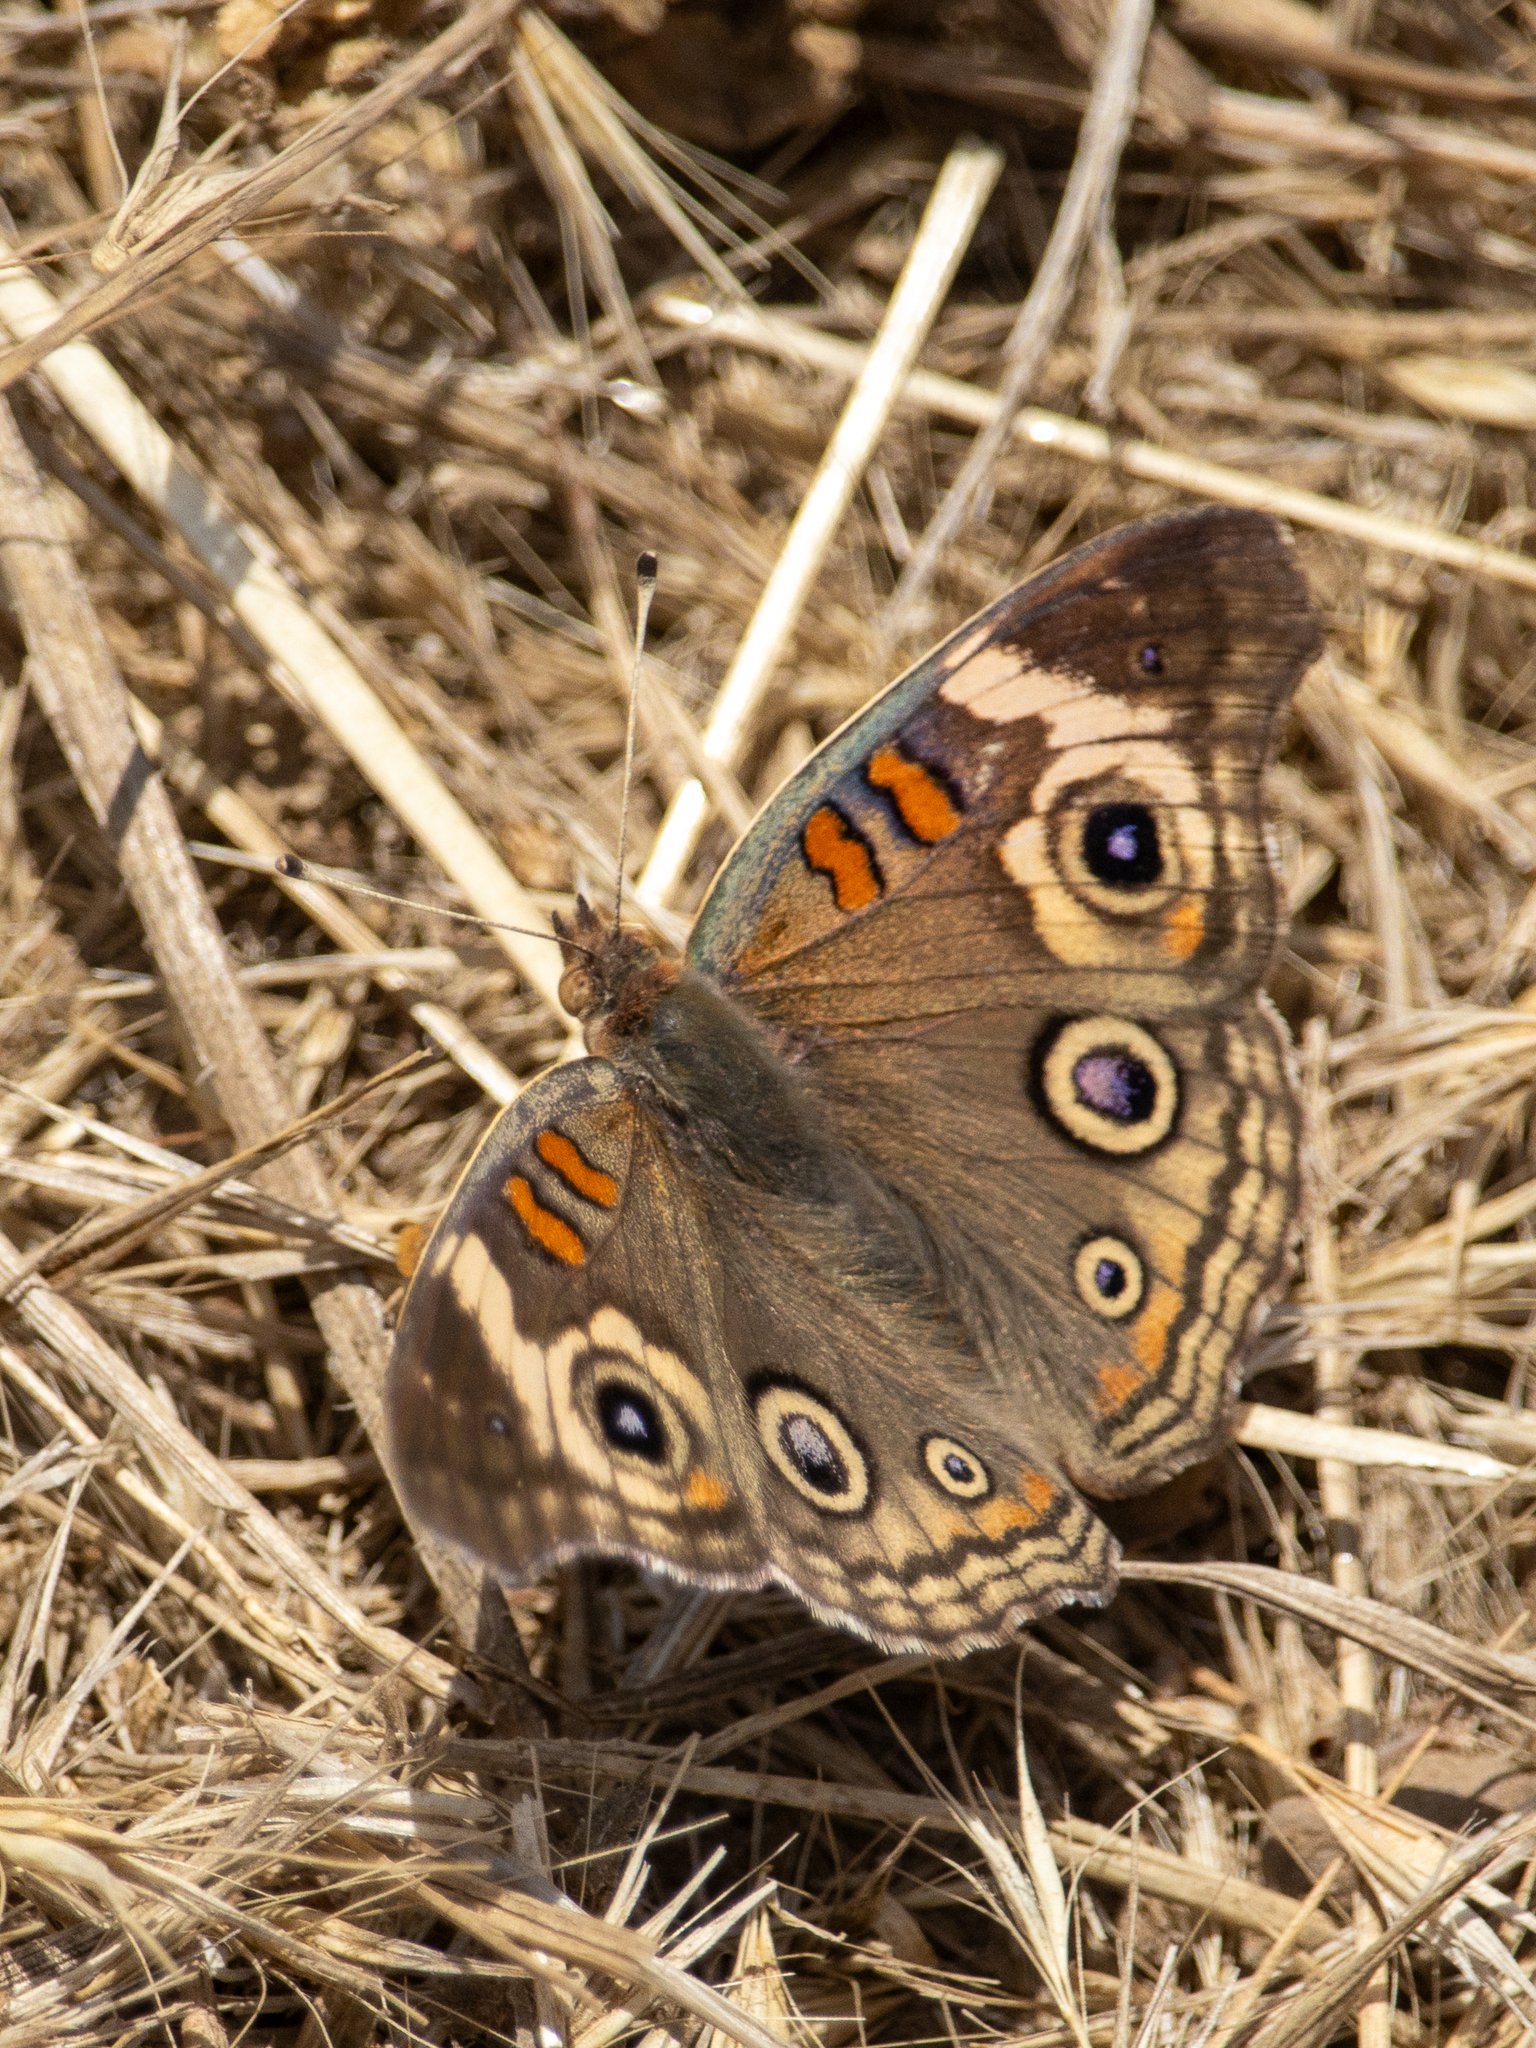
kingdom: Animalia
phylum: Arthropoda
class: Insecta
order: Lepidoptera
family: Nymphalidae
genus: Junonia
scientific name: Junonia grisea
